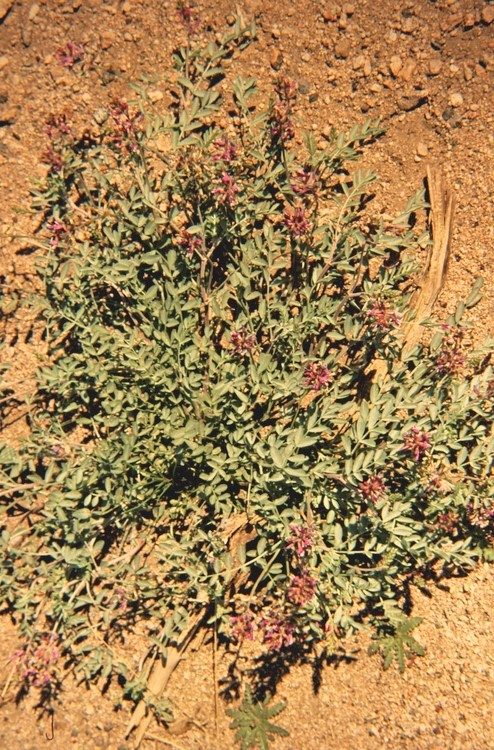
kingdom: Plantae
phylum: Tracheophyta
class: Magnoliopsida
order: Fabales
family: Fabaceae
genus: Astragalus
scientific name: Astragalus lentiginosus
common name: Freckled milkvetch
